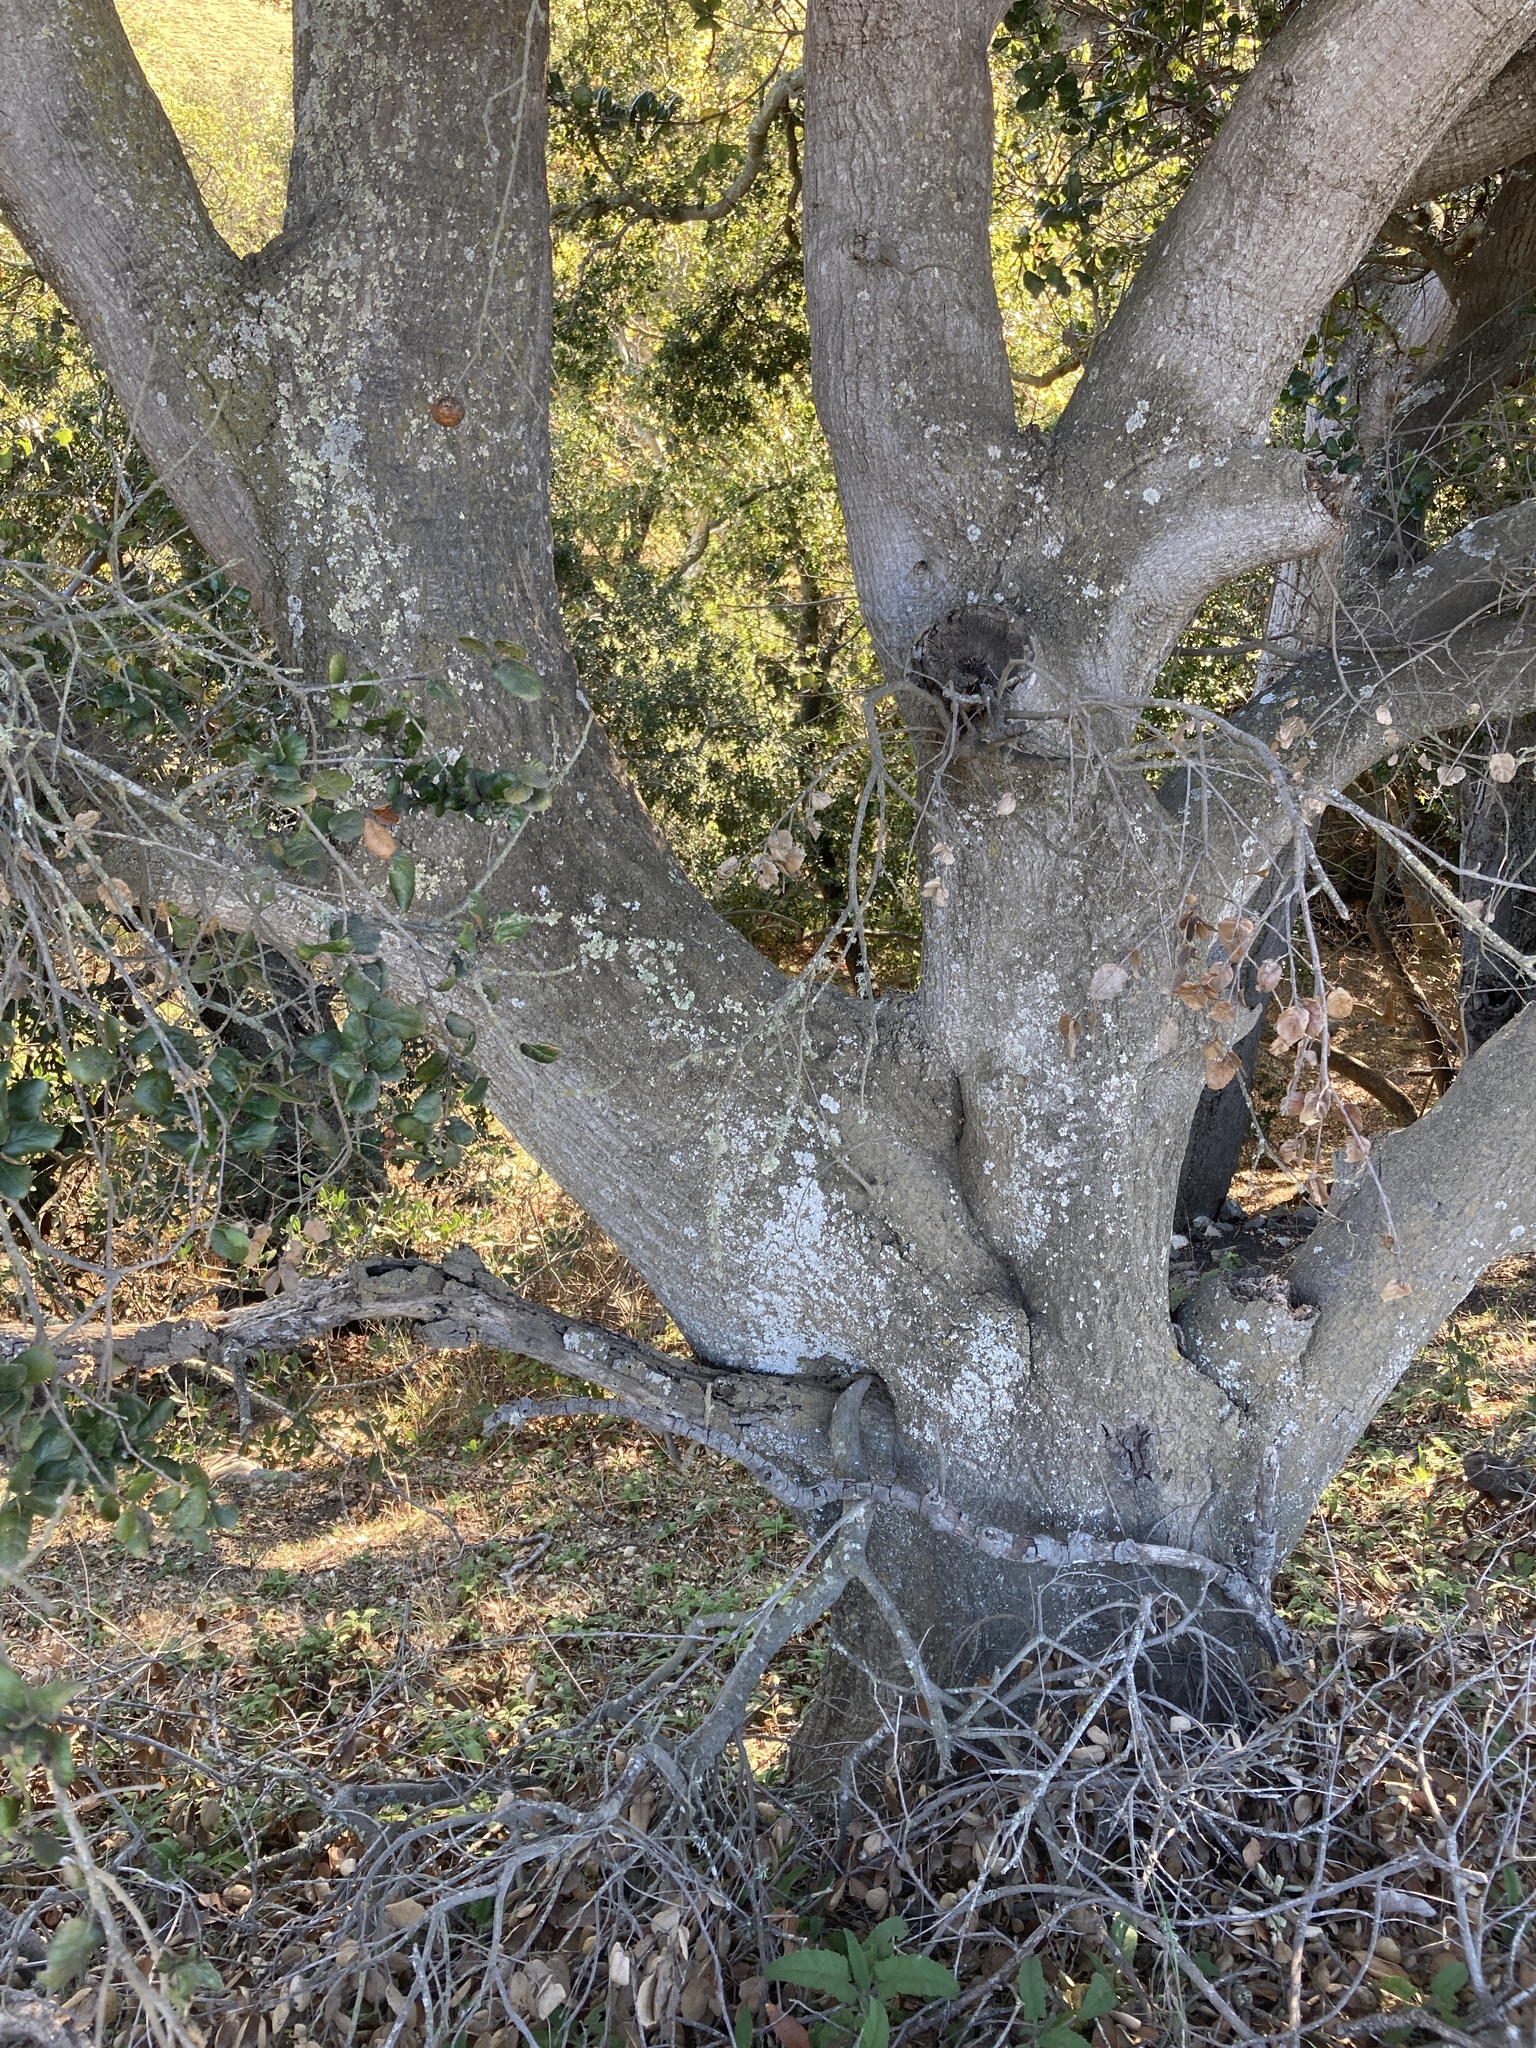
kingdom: Plantae
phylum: Tracheophyta
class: Magnoliopsida
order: Fagales
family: Fagaceae
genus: Quercus
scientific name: Quercus agrifolia
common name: California live oak
